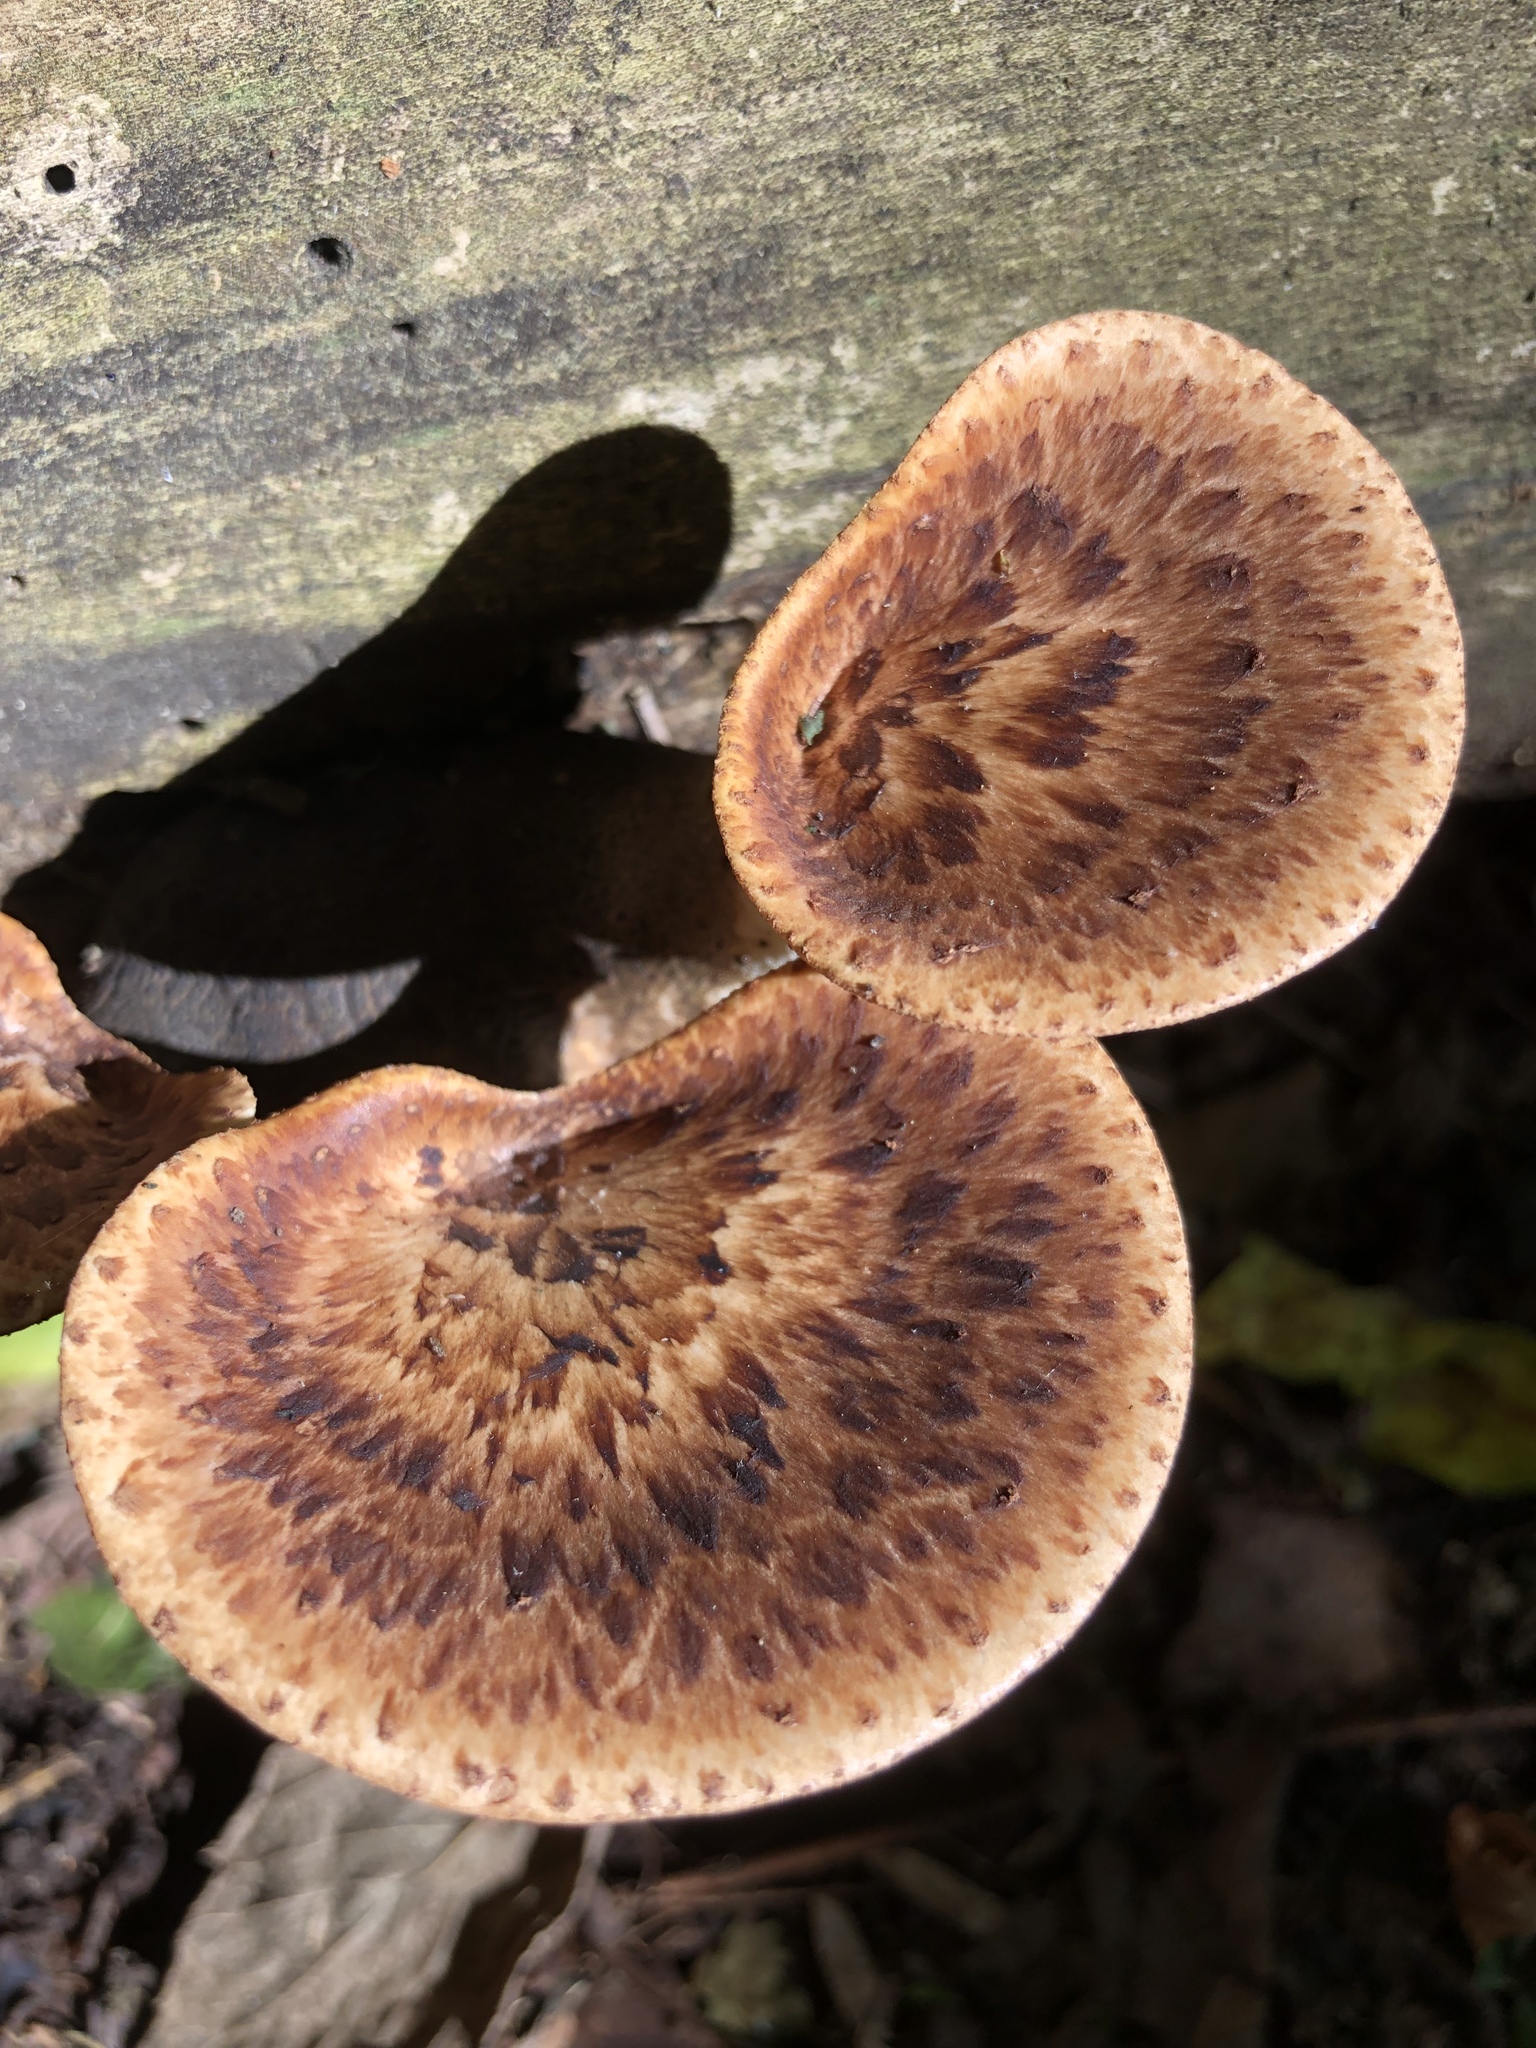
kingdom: Fungi
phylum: Basidiomycota
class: Agaricomycetes
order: Polyporales
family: Polyporaceae
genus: Cerioporus
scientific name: Cerioporus squamosus
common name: Dryad's saddle
